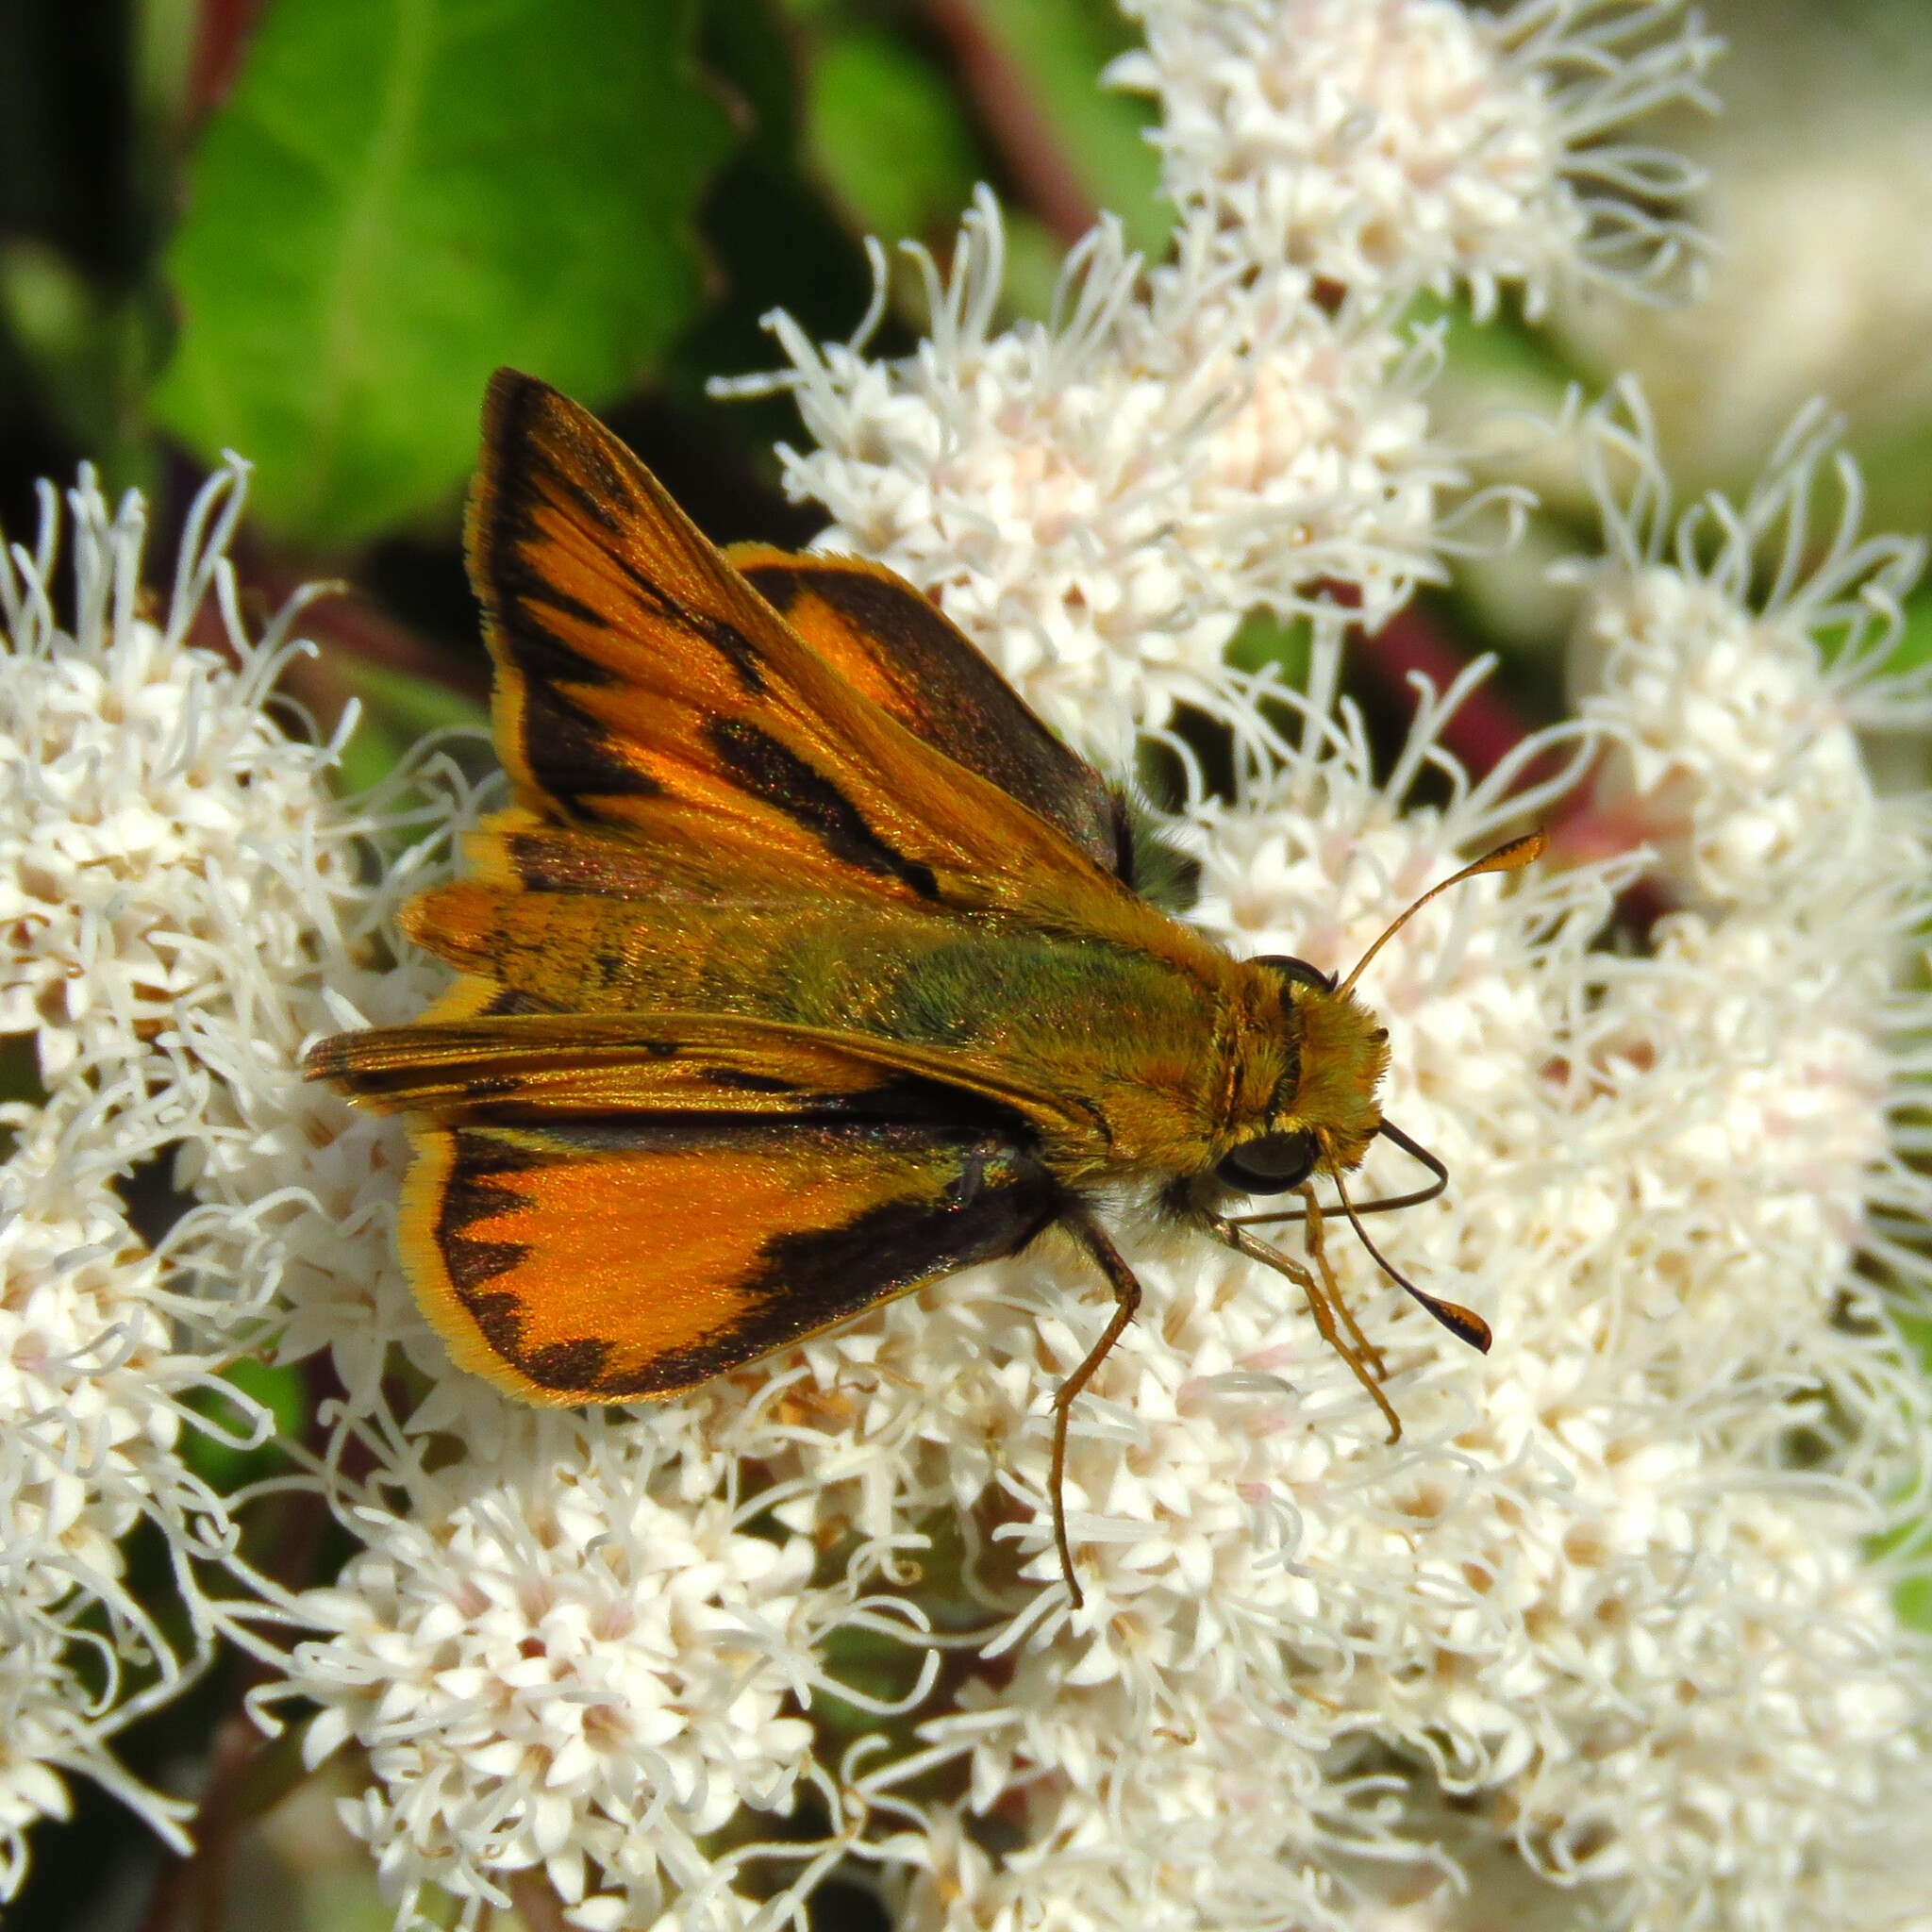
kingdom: Animalia
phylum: Arthropoda
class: Insecta
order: Lepidoptera
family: Hesperiidae
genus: Hylephila
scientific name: Hylephila phyleus
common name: Fiery skipper
